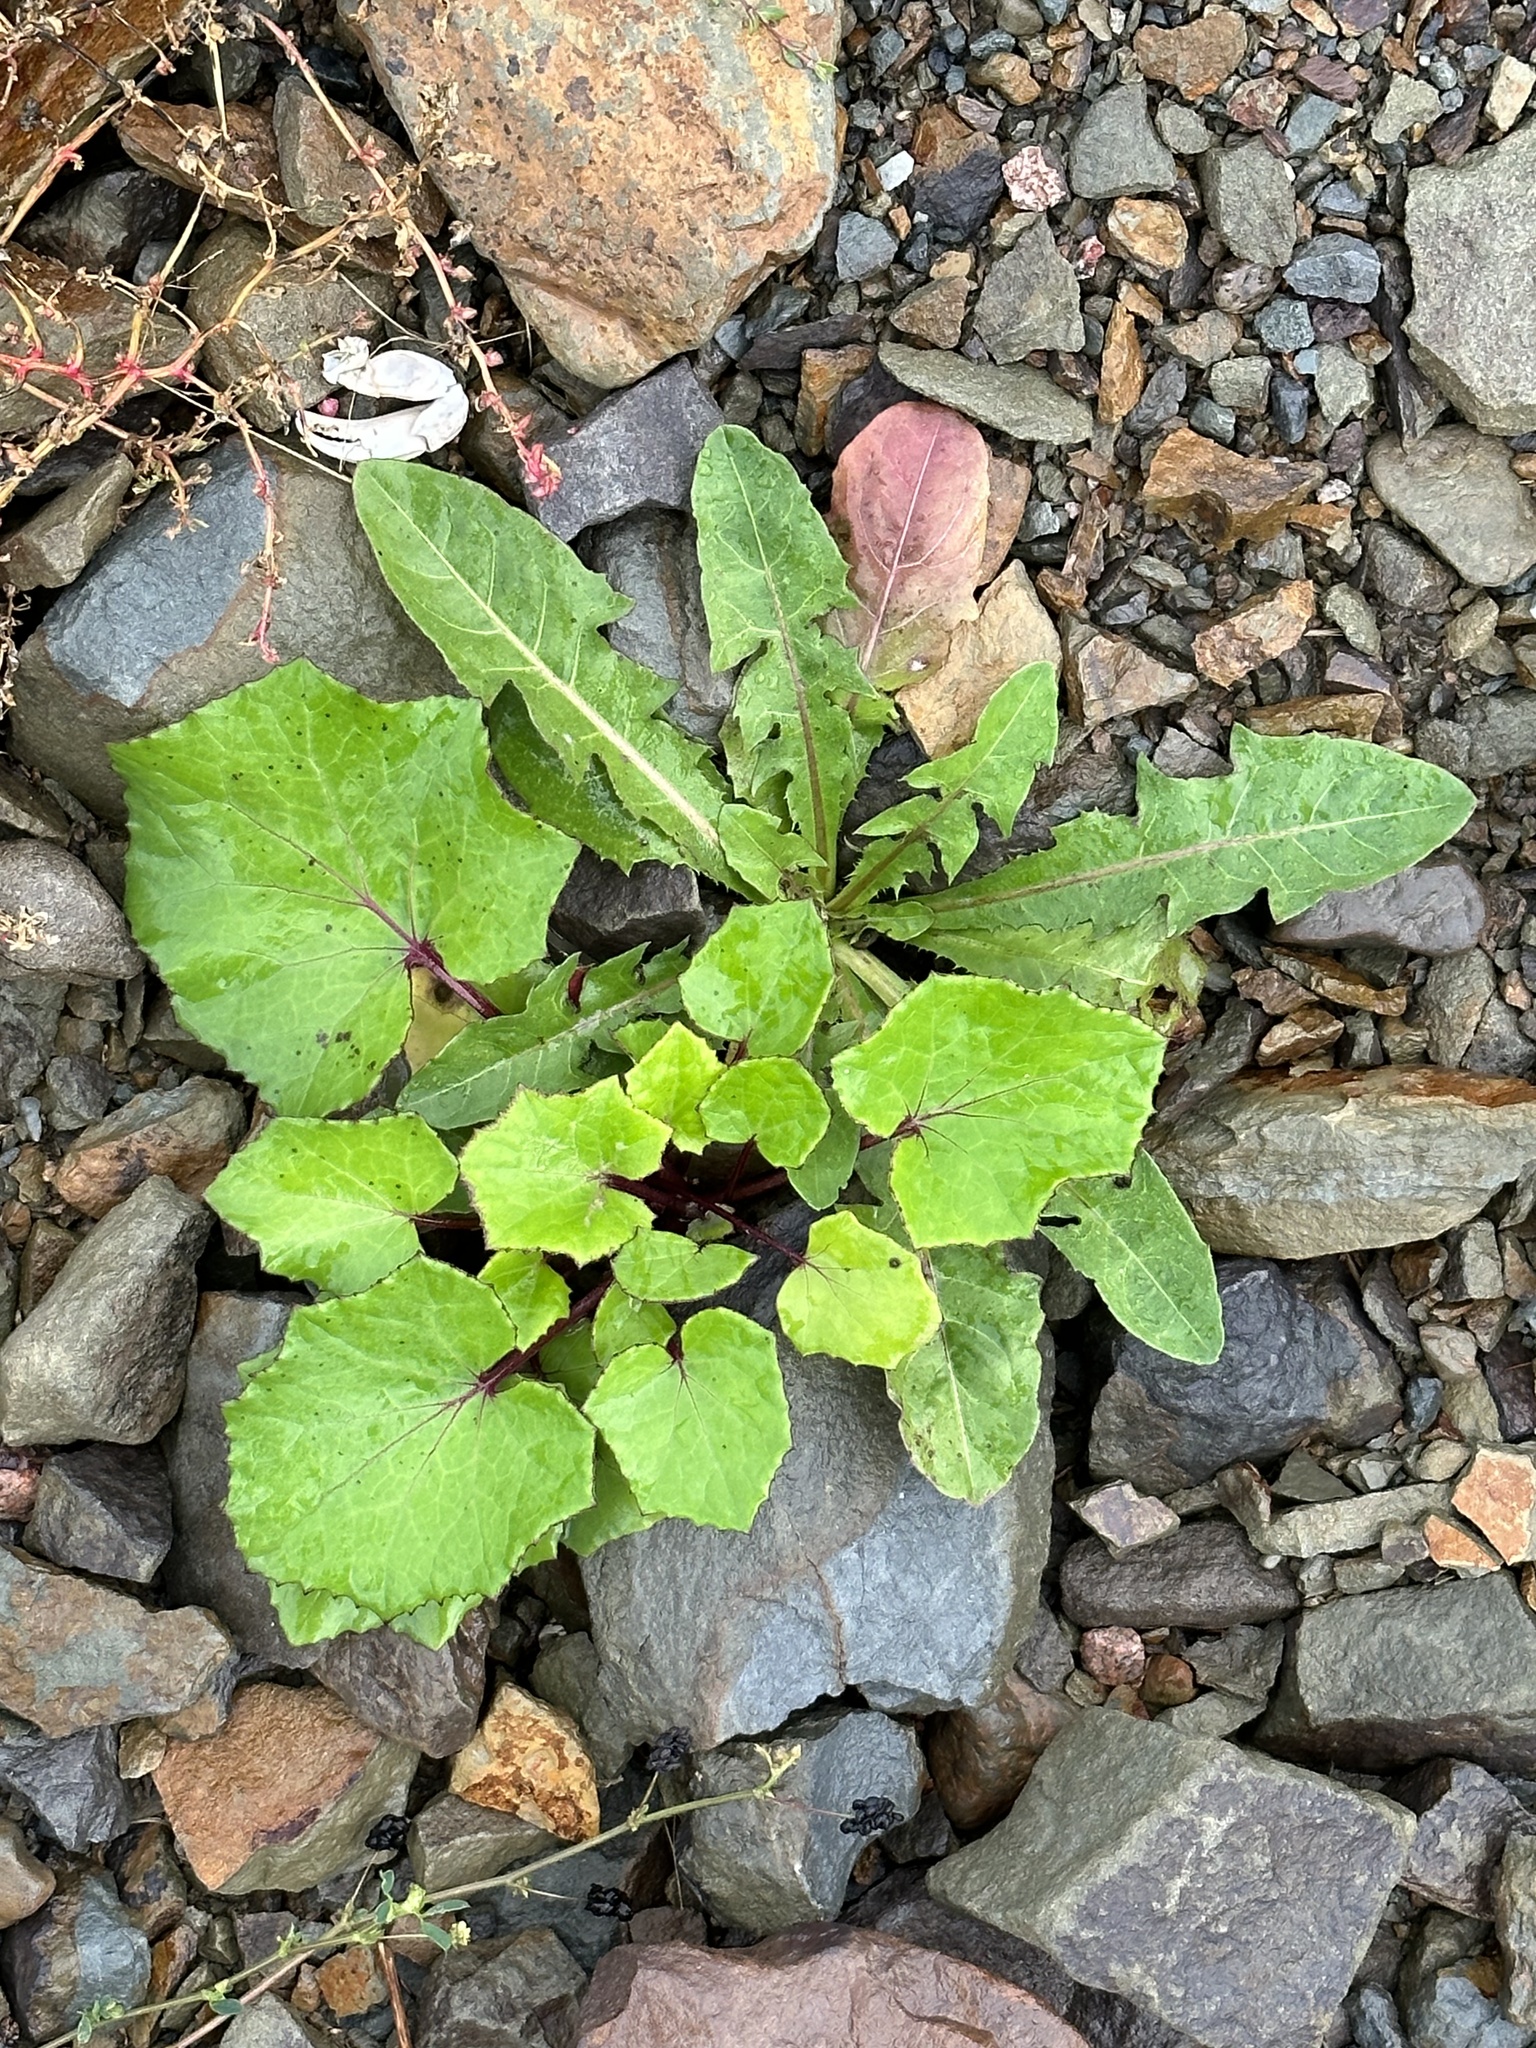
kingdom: Plantae
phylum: Tracheophyta
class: Magnoliopsida
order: Asterales
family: Asteraceae
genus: Tussilago
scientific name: Tussilago farfara
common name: Coltsfoot
